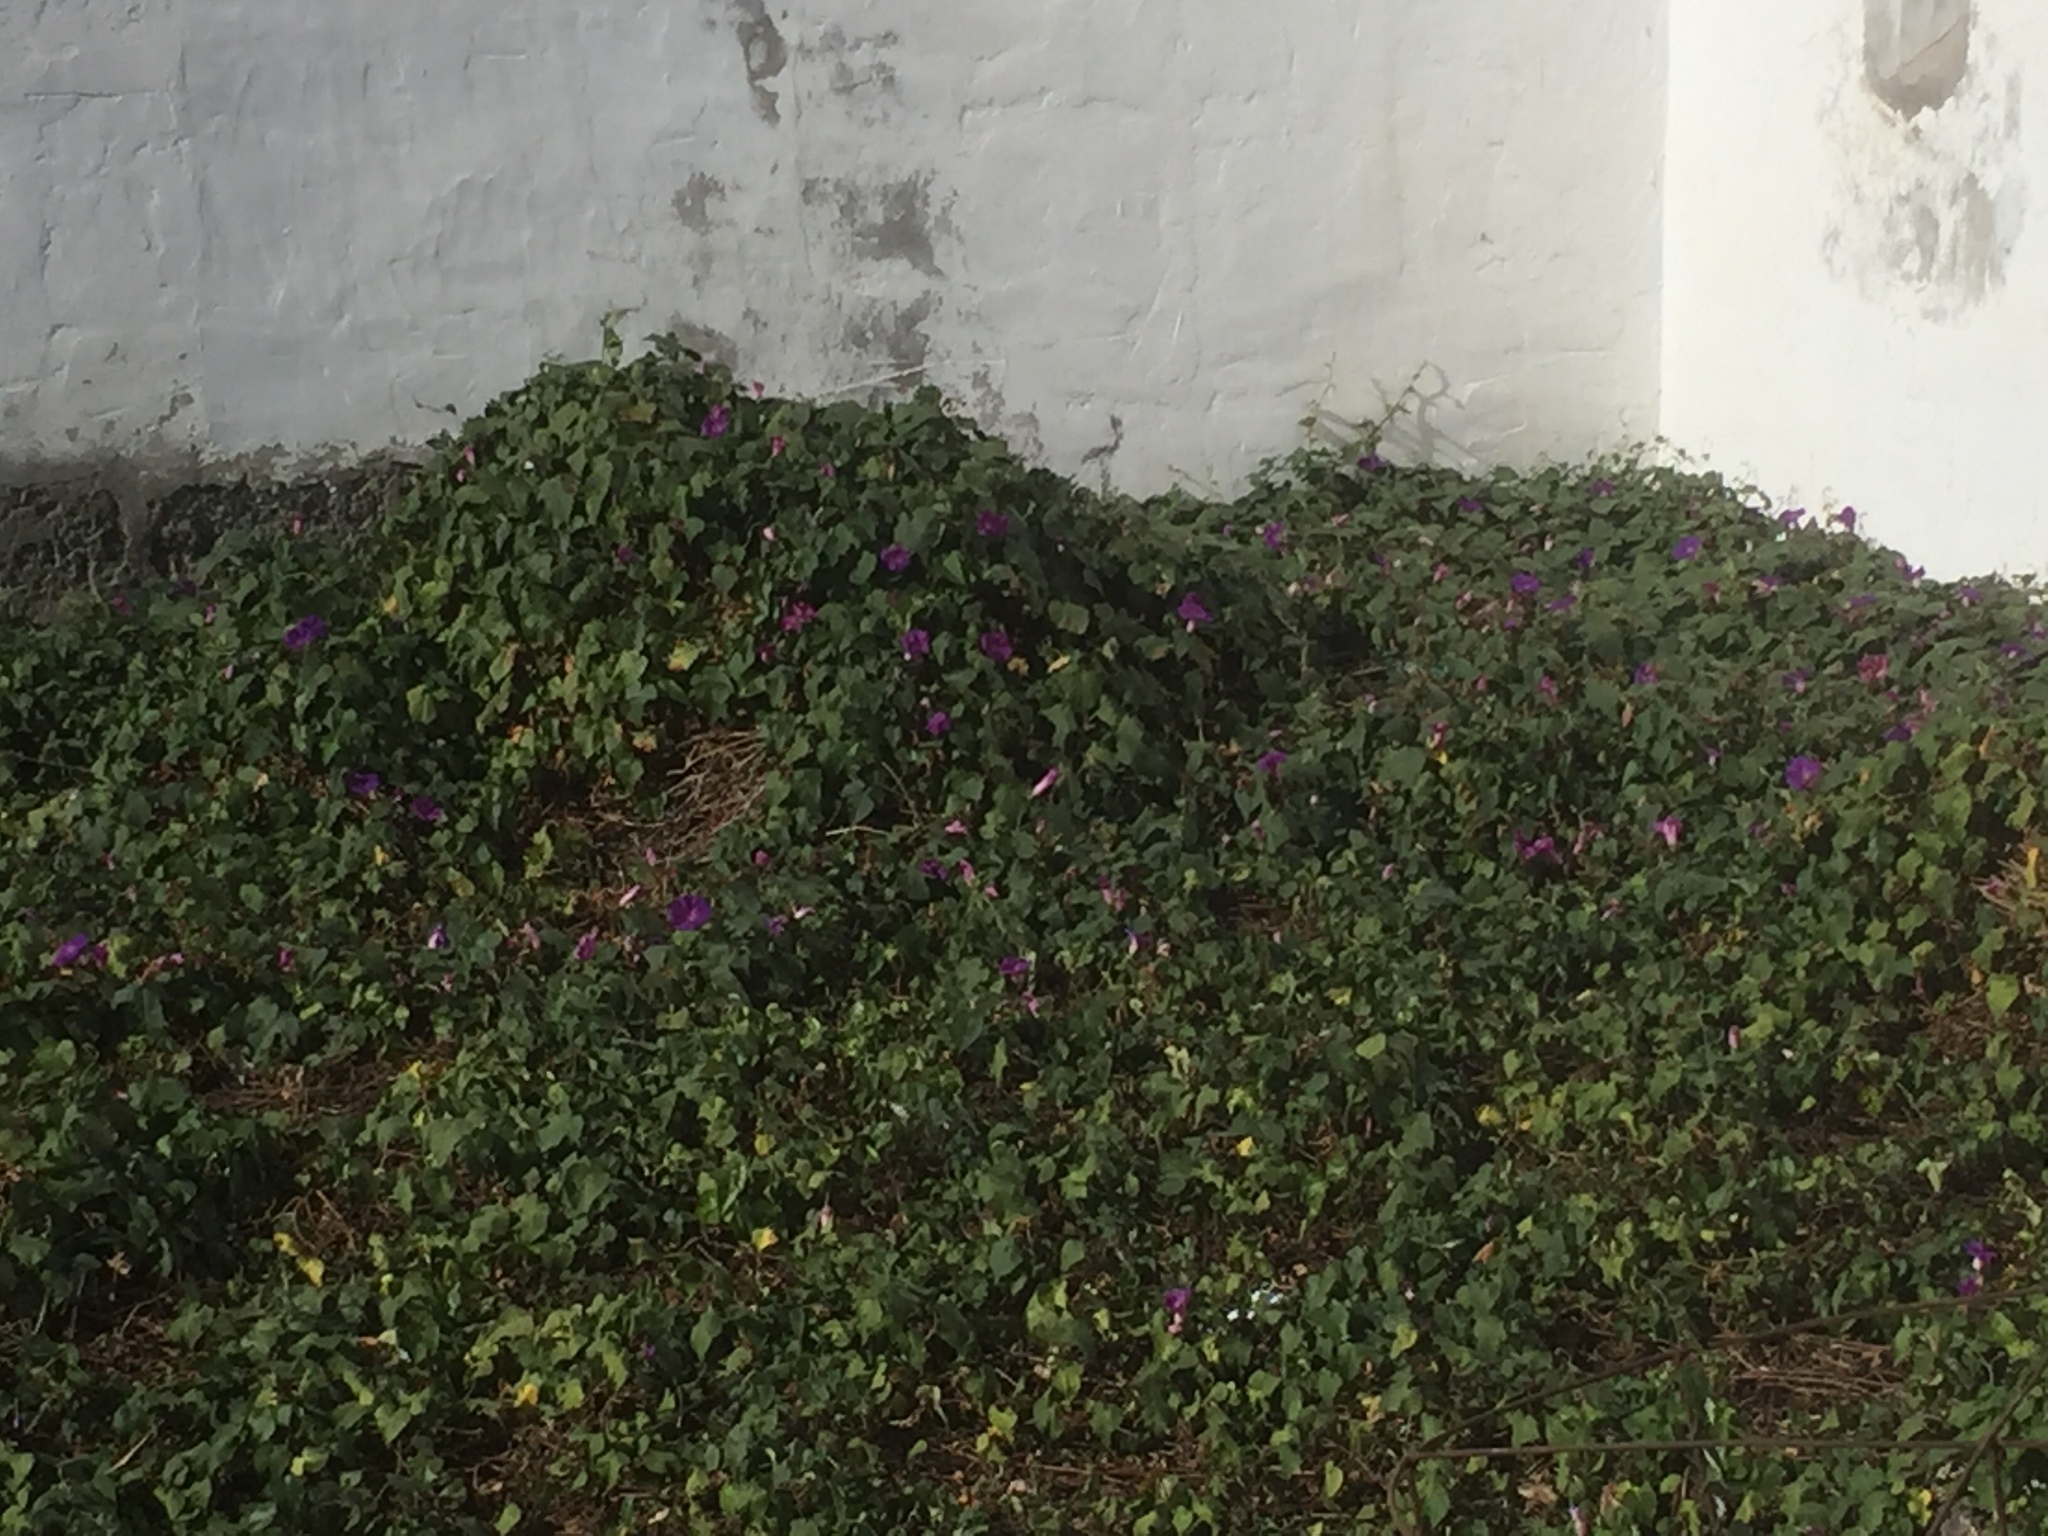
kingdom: Plantae
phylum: Tracheophyta
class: Magnoliopsida
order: Solanales
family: Convolvulaceae
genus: Ipomoea
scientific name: Ipomoea indica
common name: Blue dawnflower
